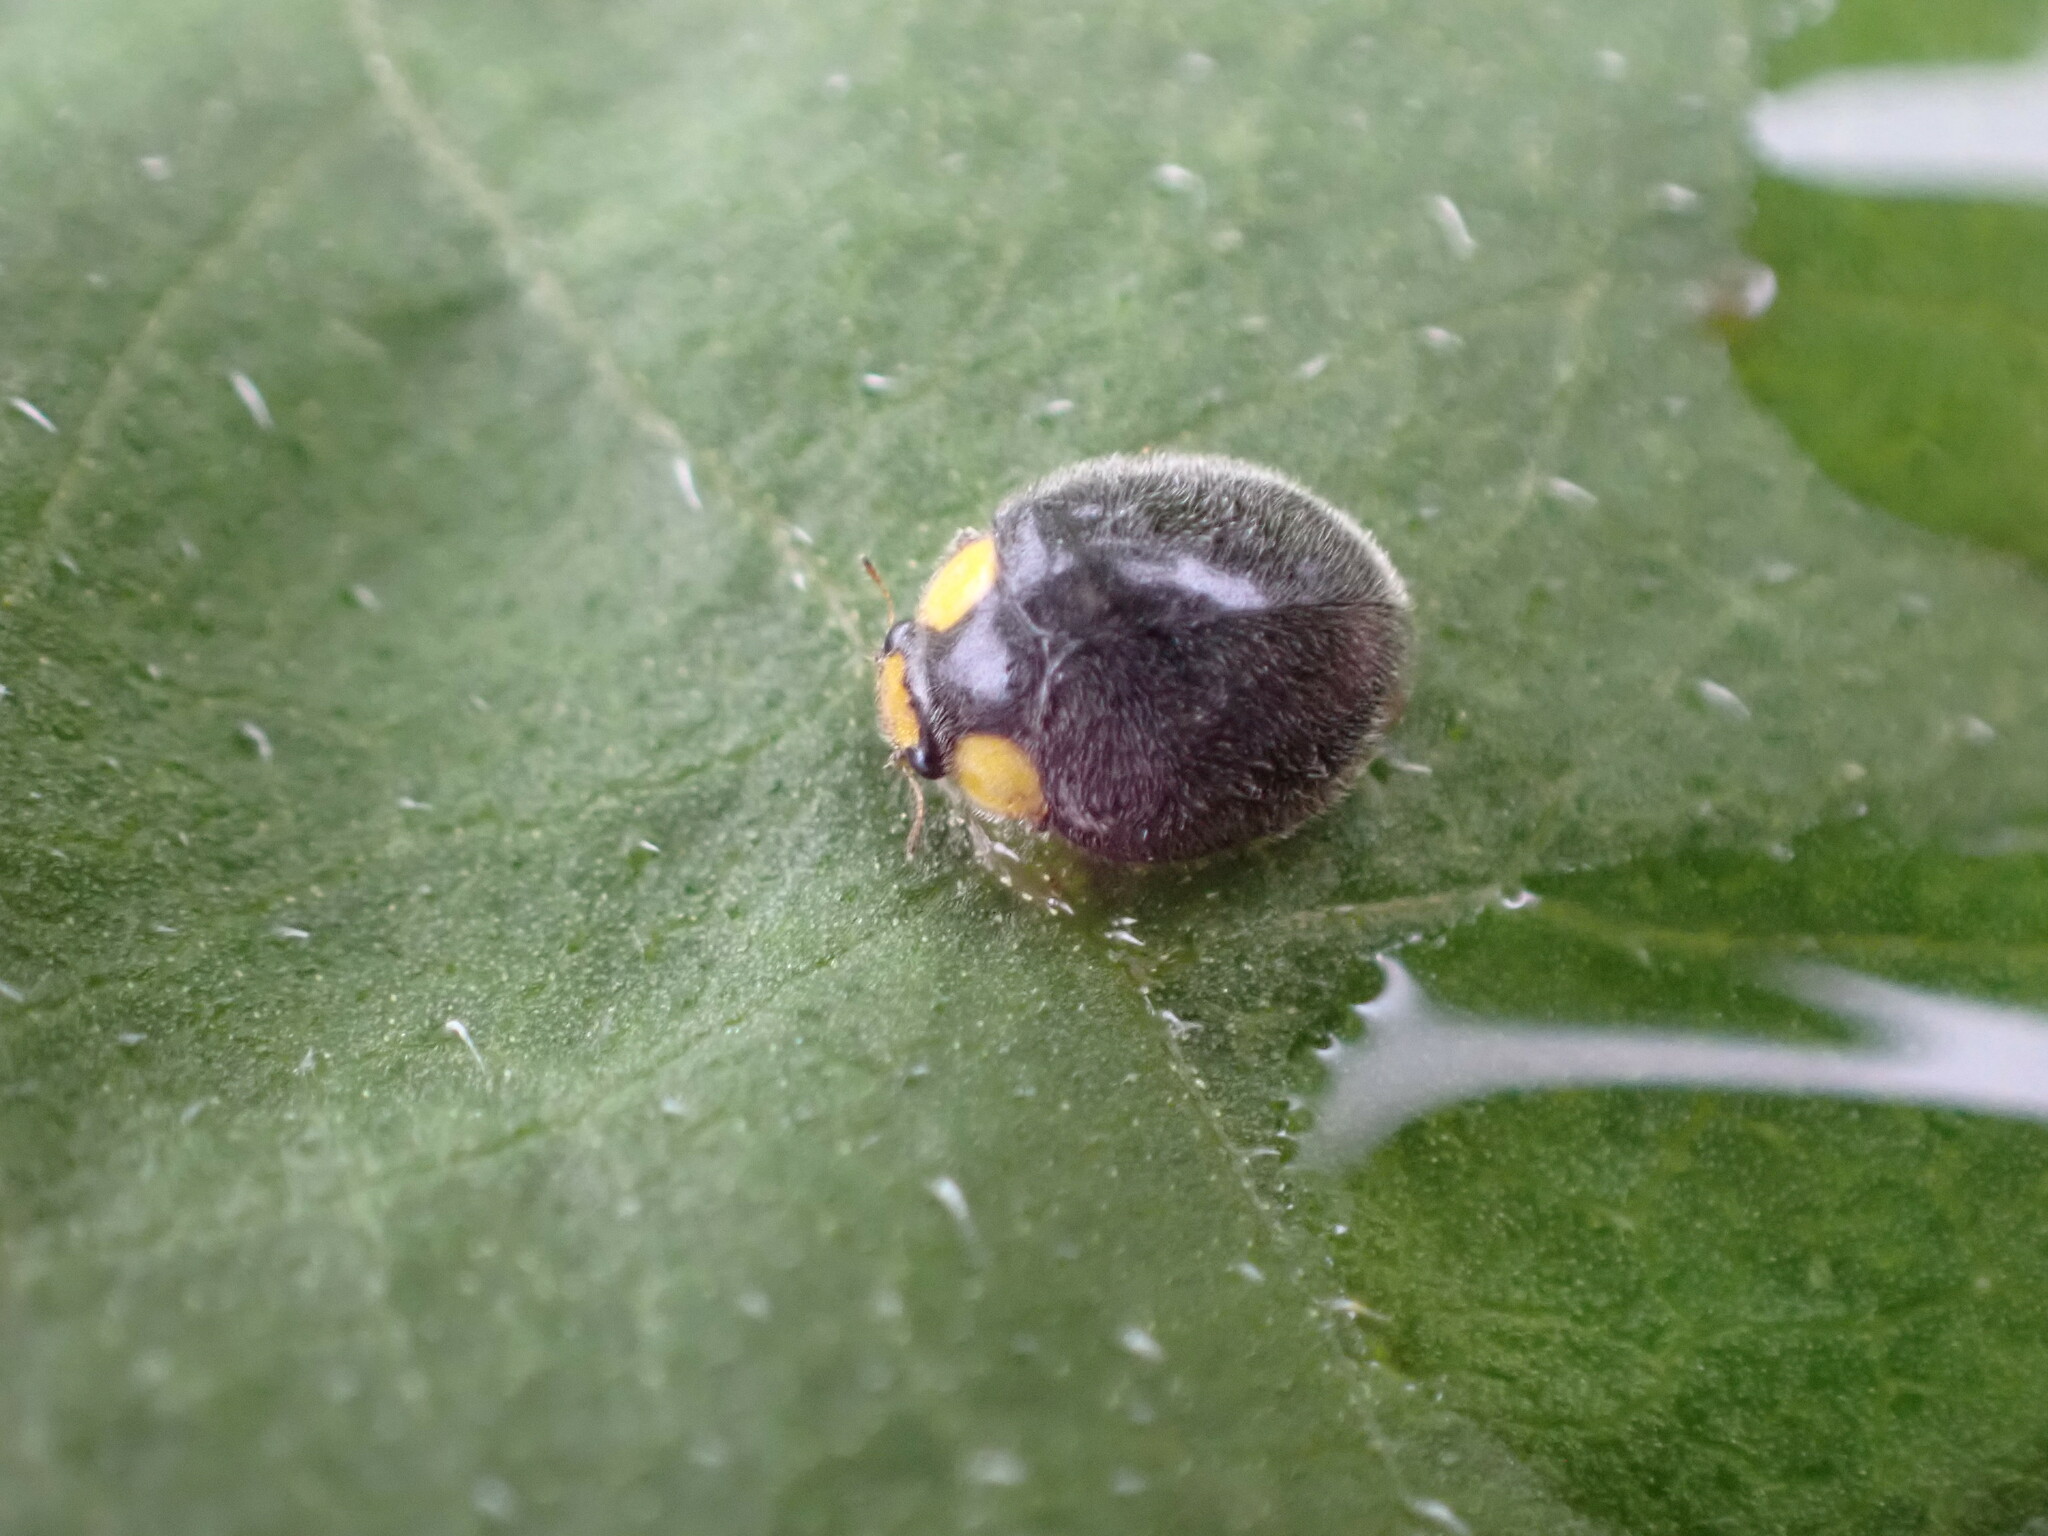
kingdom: Animalia
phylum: Arthropoda
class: Insecta
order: Coleoptera
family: Coccinellidae
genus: Scymnodes
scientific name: Scymnodes lividigaster
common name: Yellowshouldered lady beetle
